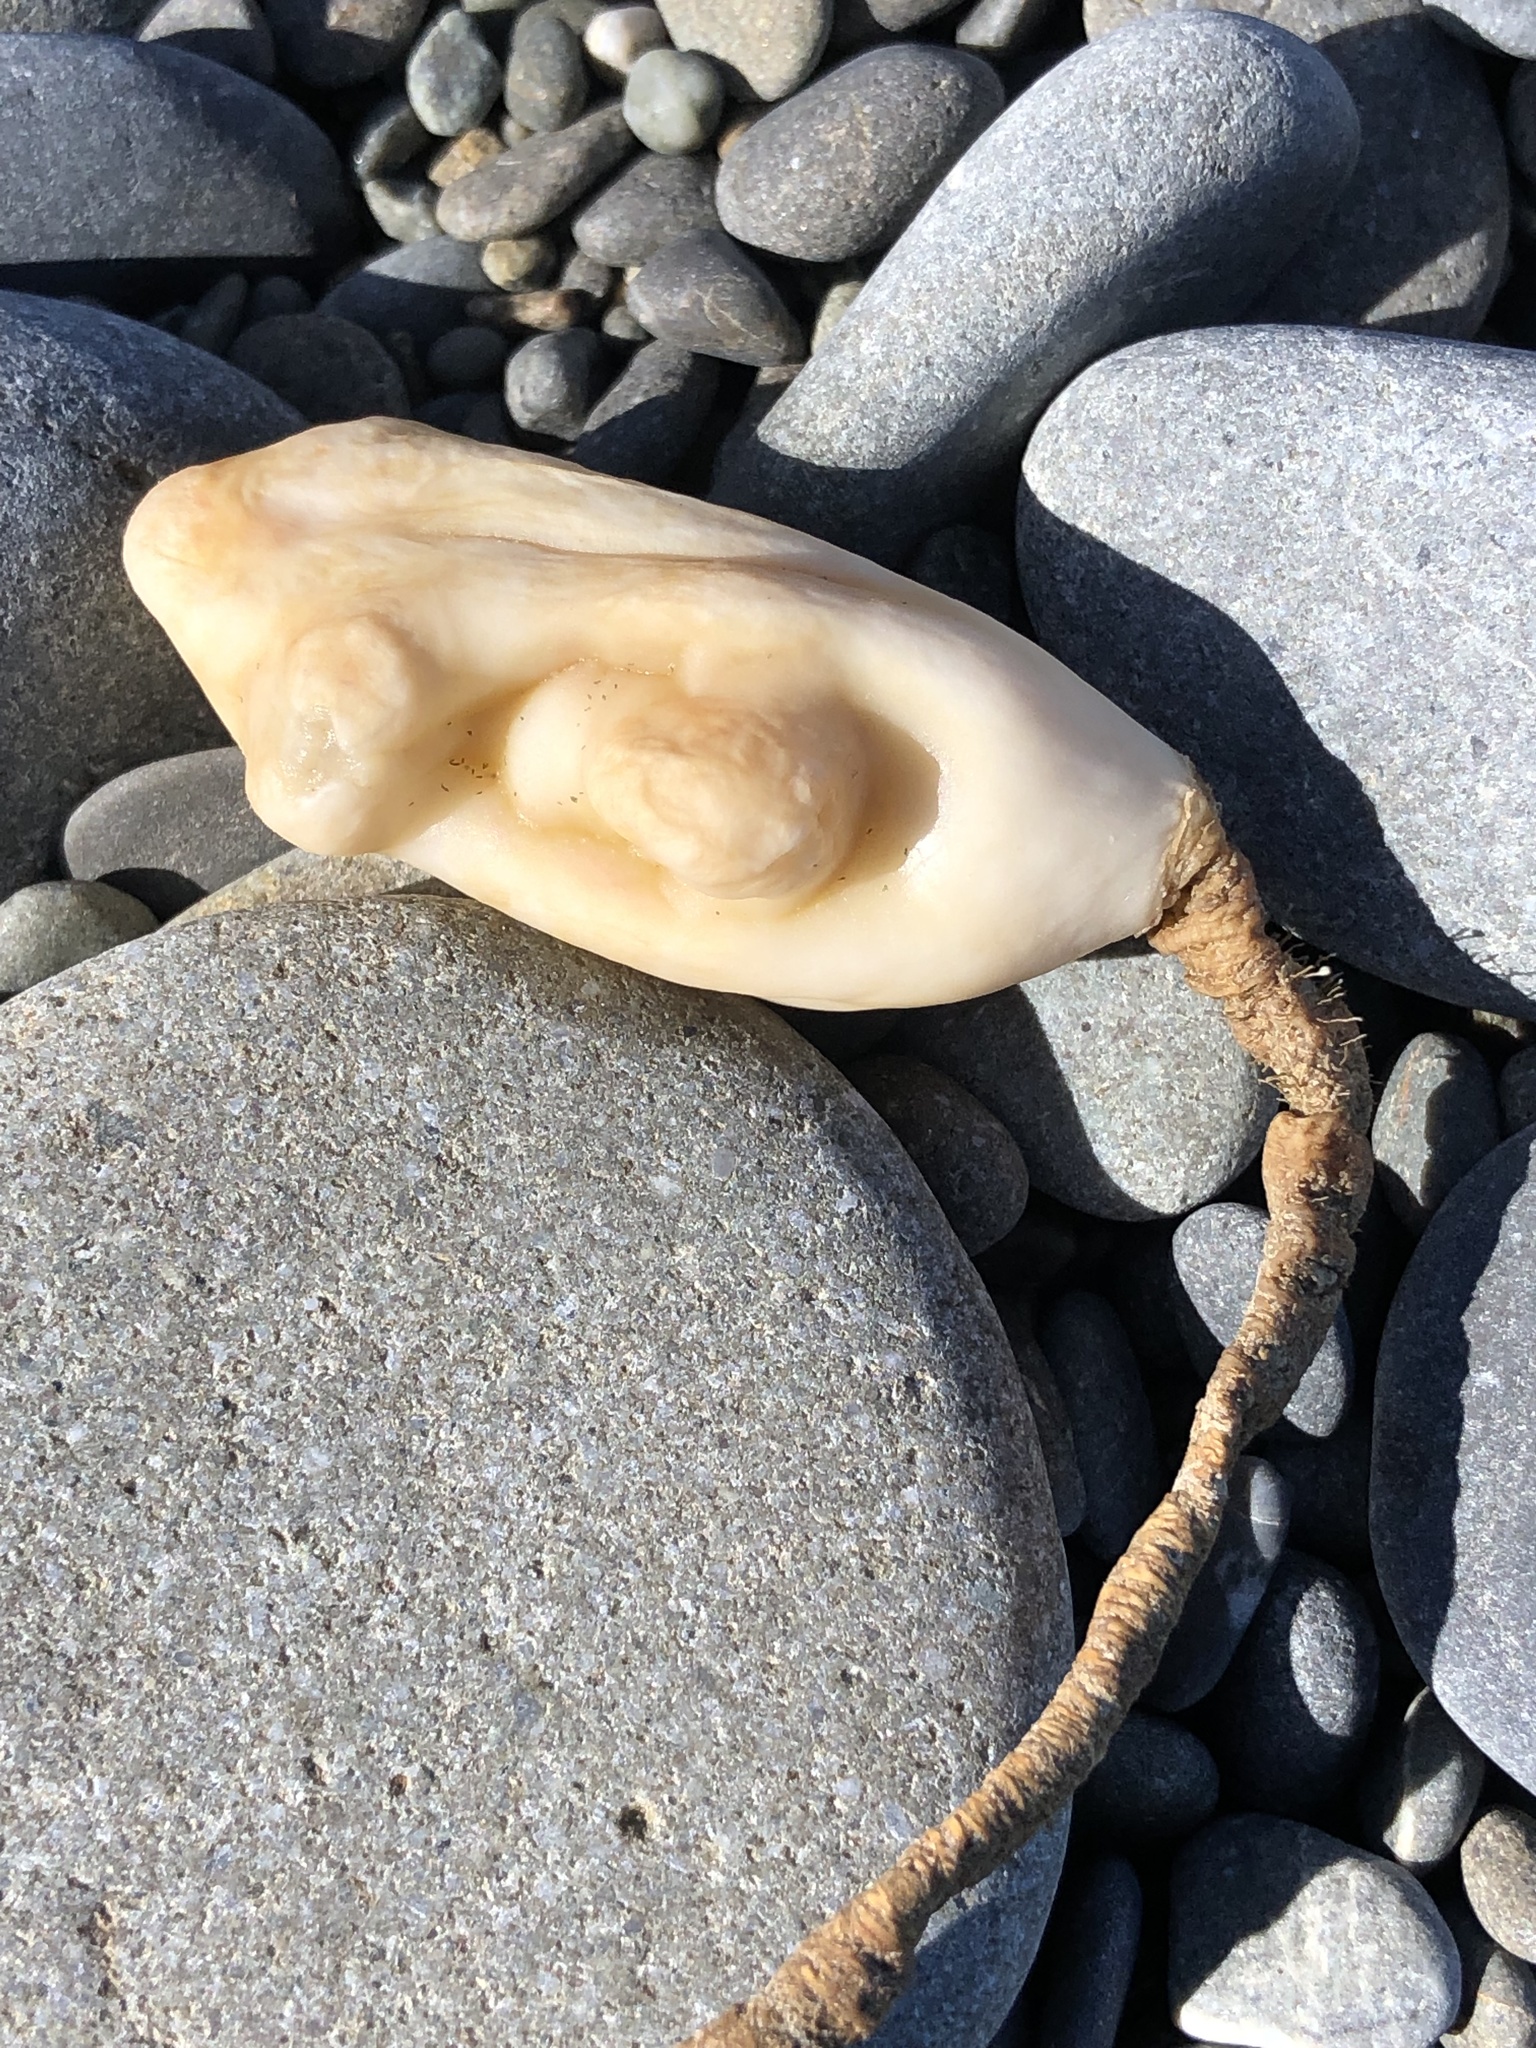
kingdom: Animalia
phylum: Chordata
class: Ascidiacea
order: Stolidobranchia
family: Pyuridae
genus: Pyura
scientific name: Pyura pachydermatina
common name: Sea tulip
